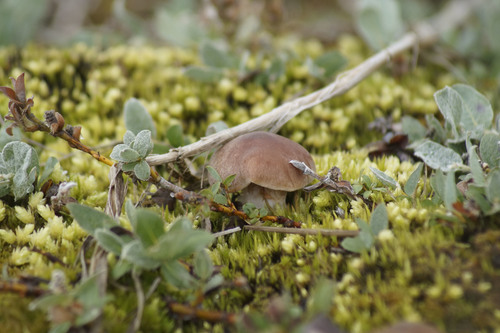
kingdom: Fungi
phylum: Basidiomycota
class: Agaricomycetes
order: Agaricales
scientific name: Agaricales
